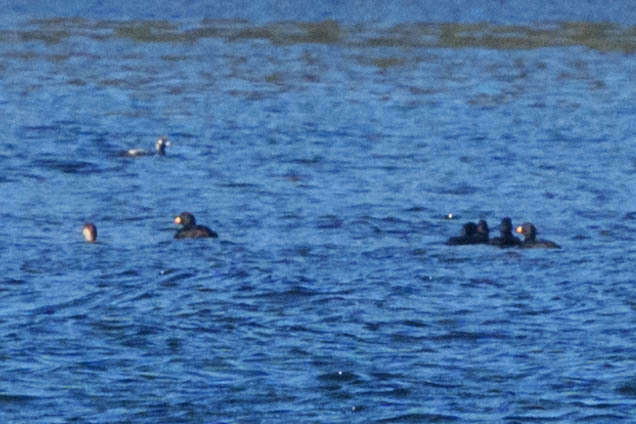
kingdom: Animalia
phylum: Chordata
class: Aves
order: Anseriformes
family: Anatidae
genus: Melanitta
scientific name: Melanitta americana
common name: Black scoter
